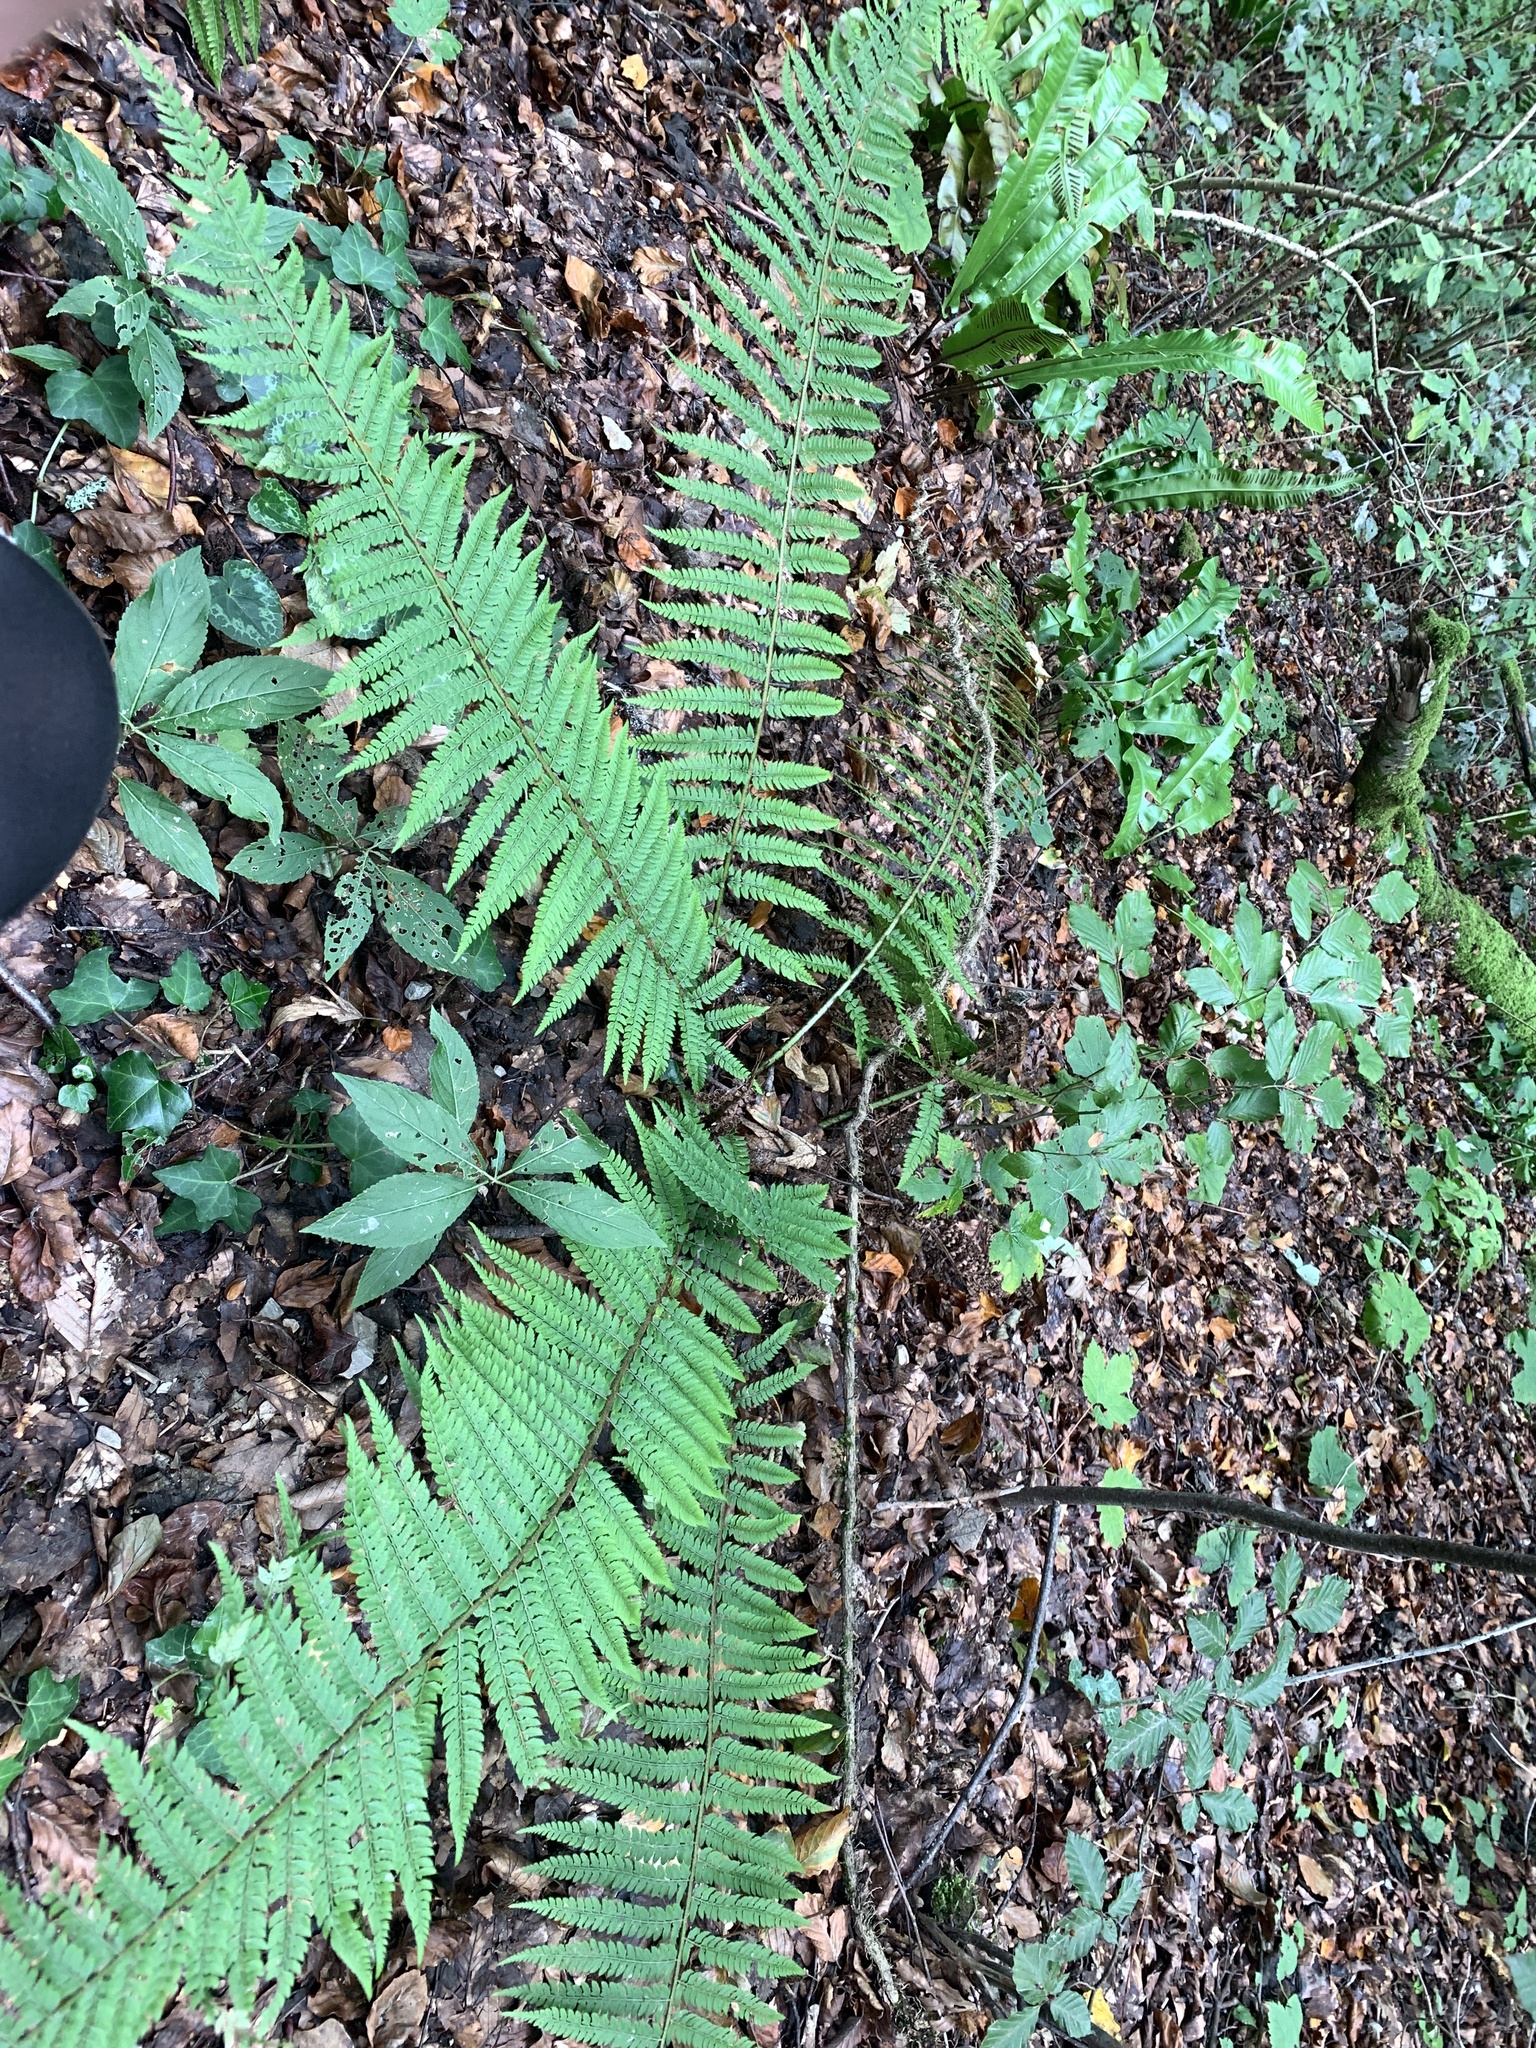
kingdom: Plantae
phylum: Tracheophyta
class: Polypodiopsida
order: Polypodiales
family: Dryopteridaceae
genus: Polystichum
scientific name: Polystichum setiferum
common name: Soft shield-fern
